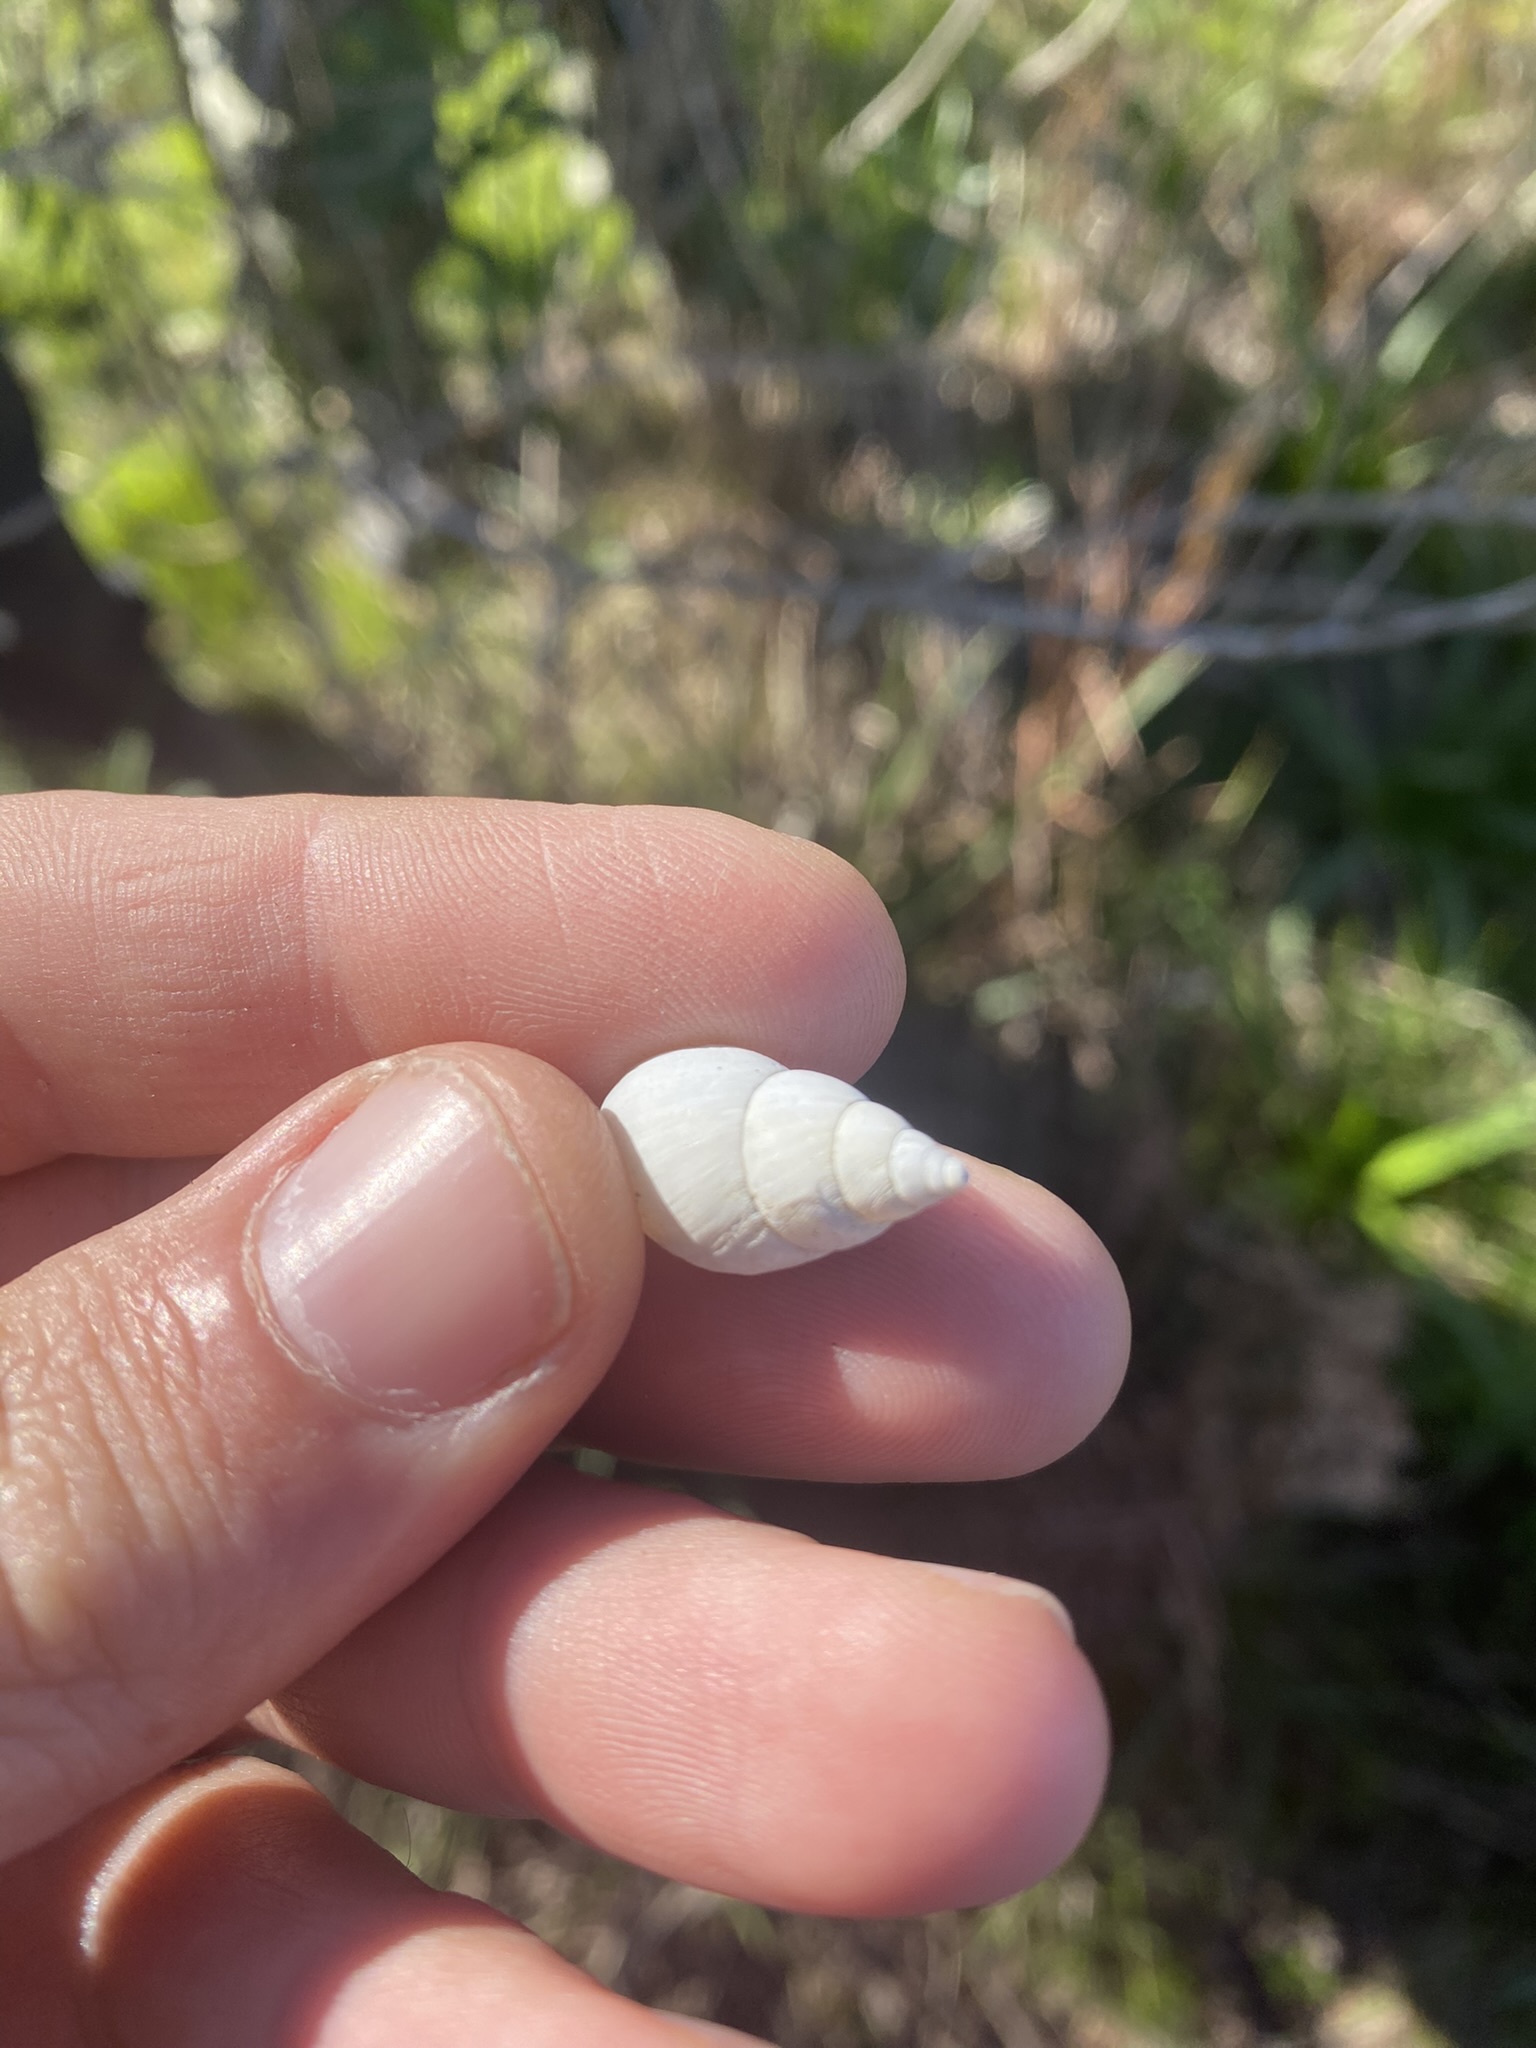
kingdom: Animalia
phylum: Mollusca
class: Gastropoda
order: Stylommatophora
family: Bulimulidae
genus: Bulimulus
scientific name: Bulimulus bonariensis
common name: Snail
